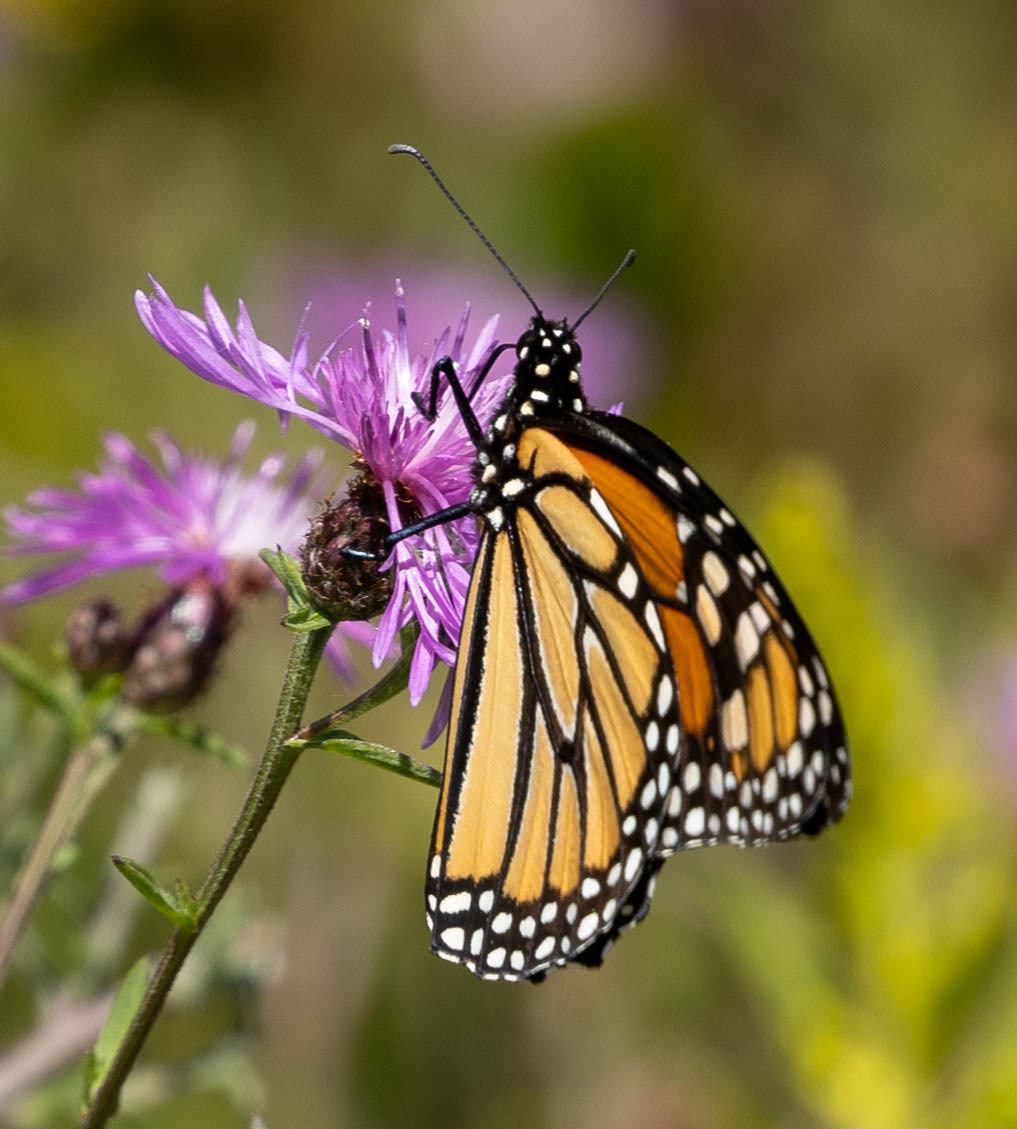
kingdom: Animalia
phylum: Arthropoda
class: Insecta
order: Lepidoptera
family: Nymphalidae
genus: Danaus
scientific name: Danaus plexippus
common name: Monarch
